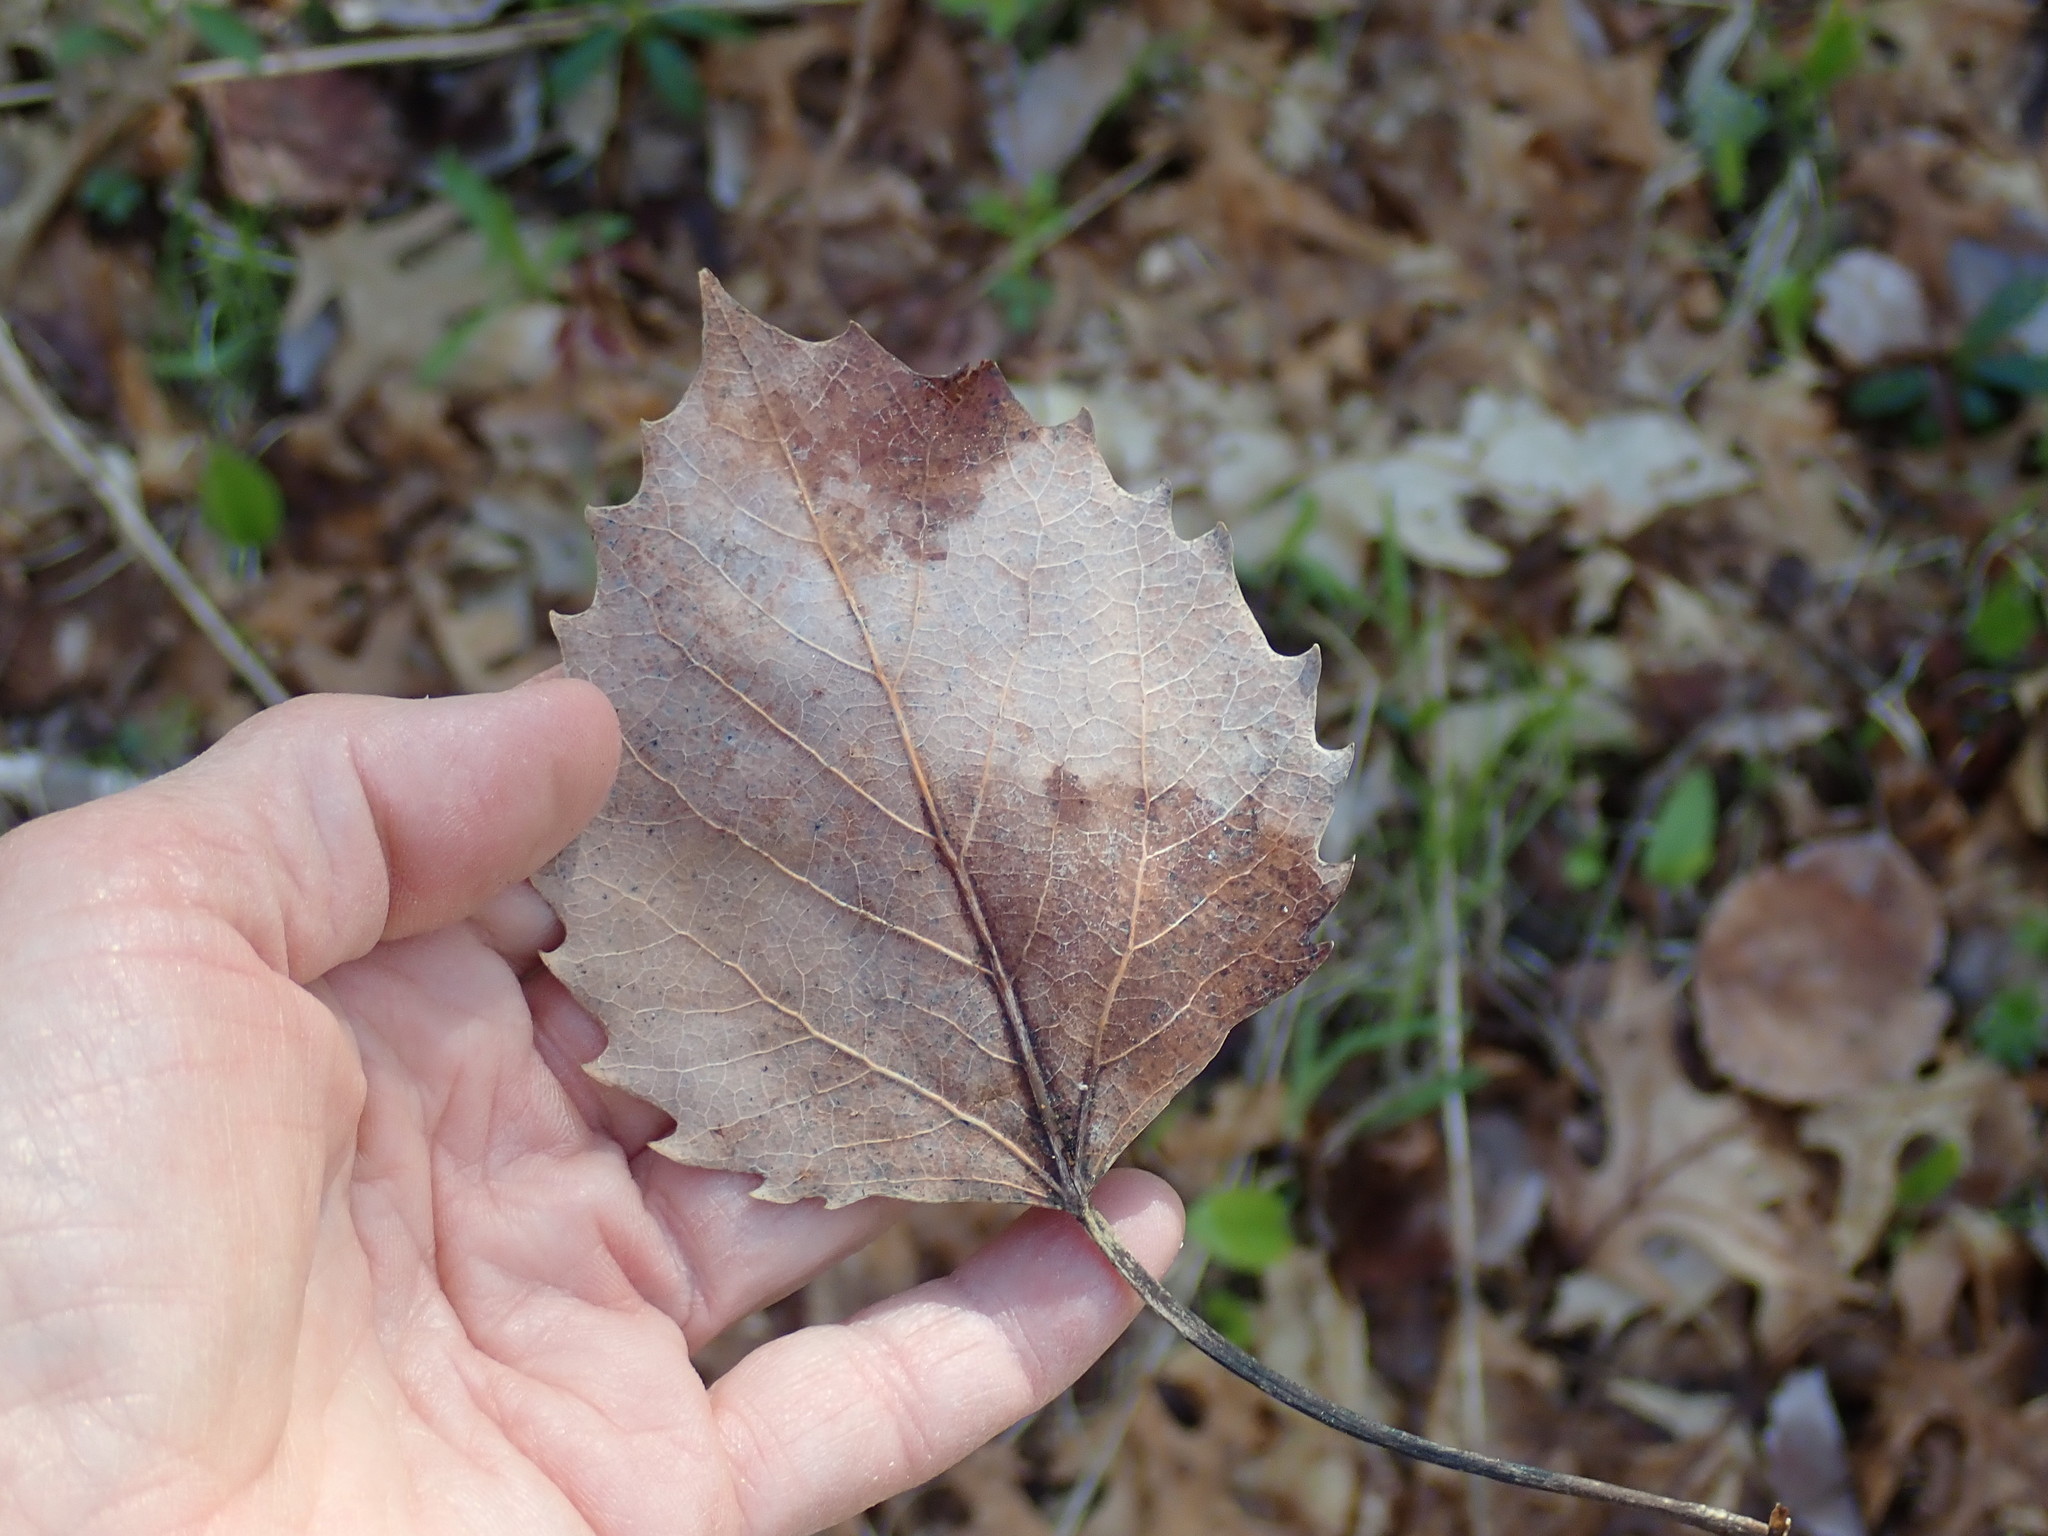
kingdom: Plantae
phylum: Tracheophyta
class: Magnoliopsida
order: Malpighiales
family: Salicaceae
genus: Populus
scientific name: Populus grandidentata
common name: Bigtooth aspen
